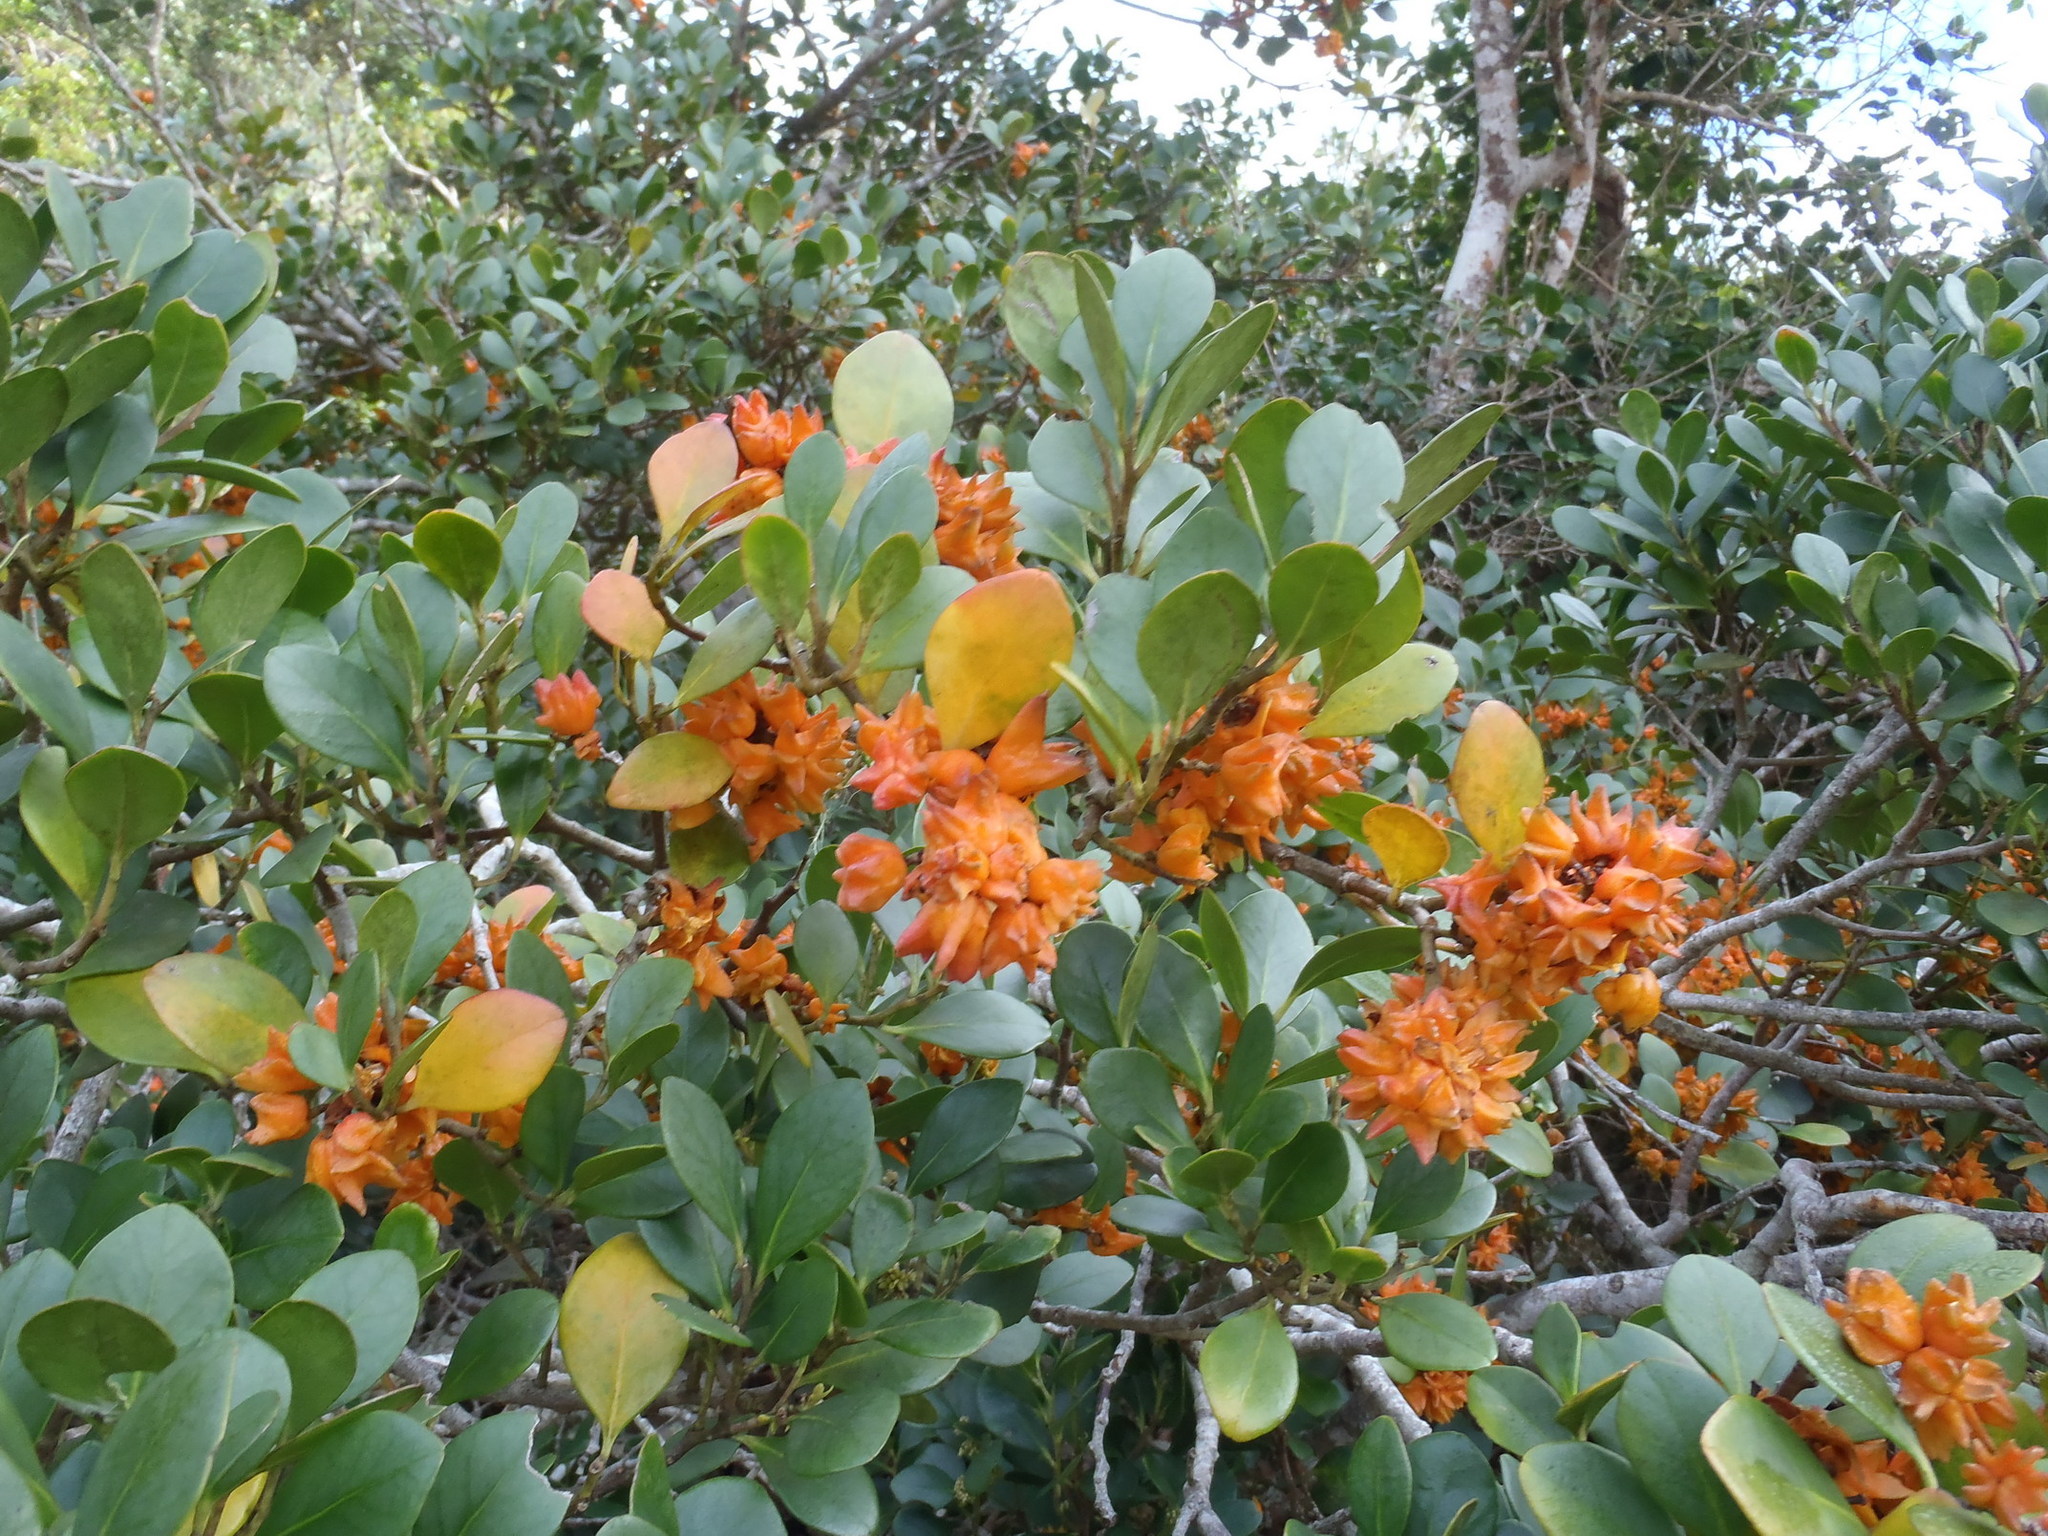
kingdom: Plantae
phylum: Tracheophyta
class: Magnoliopsida
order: Celastrales
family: Celastraceae
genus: Pterocelastrus
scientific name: Pterocelastrus tricuspidatus
